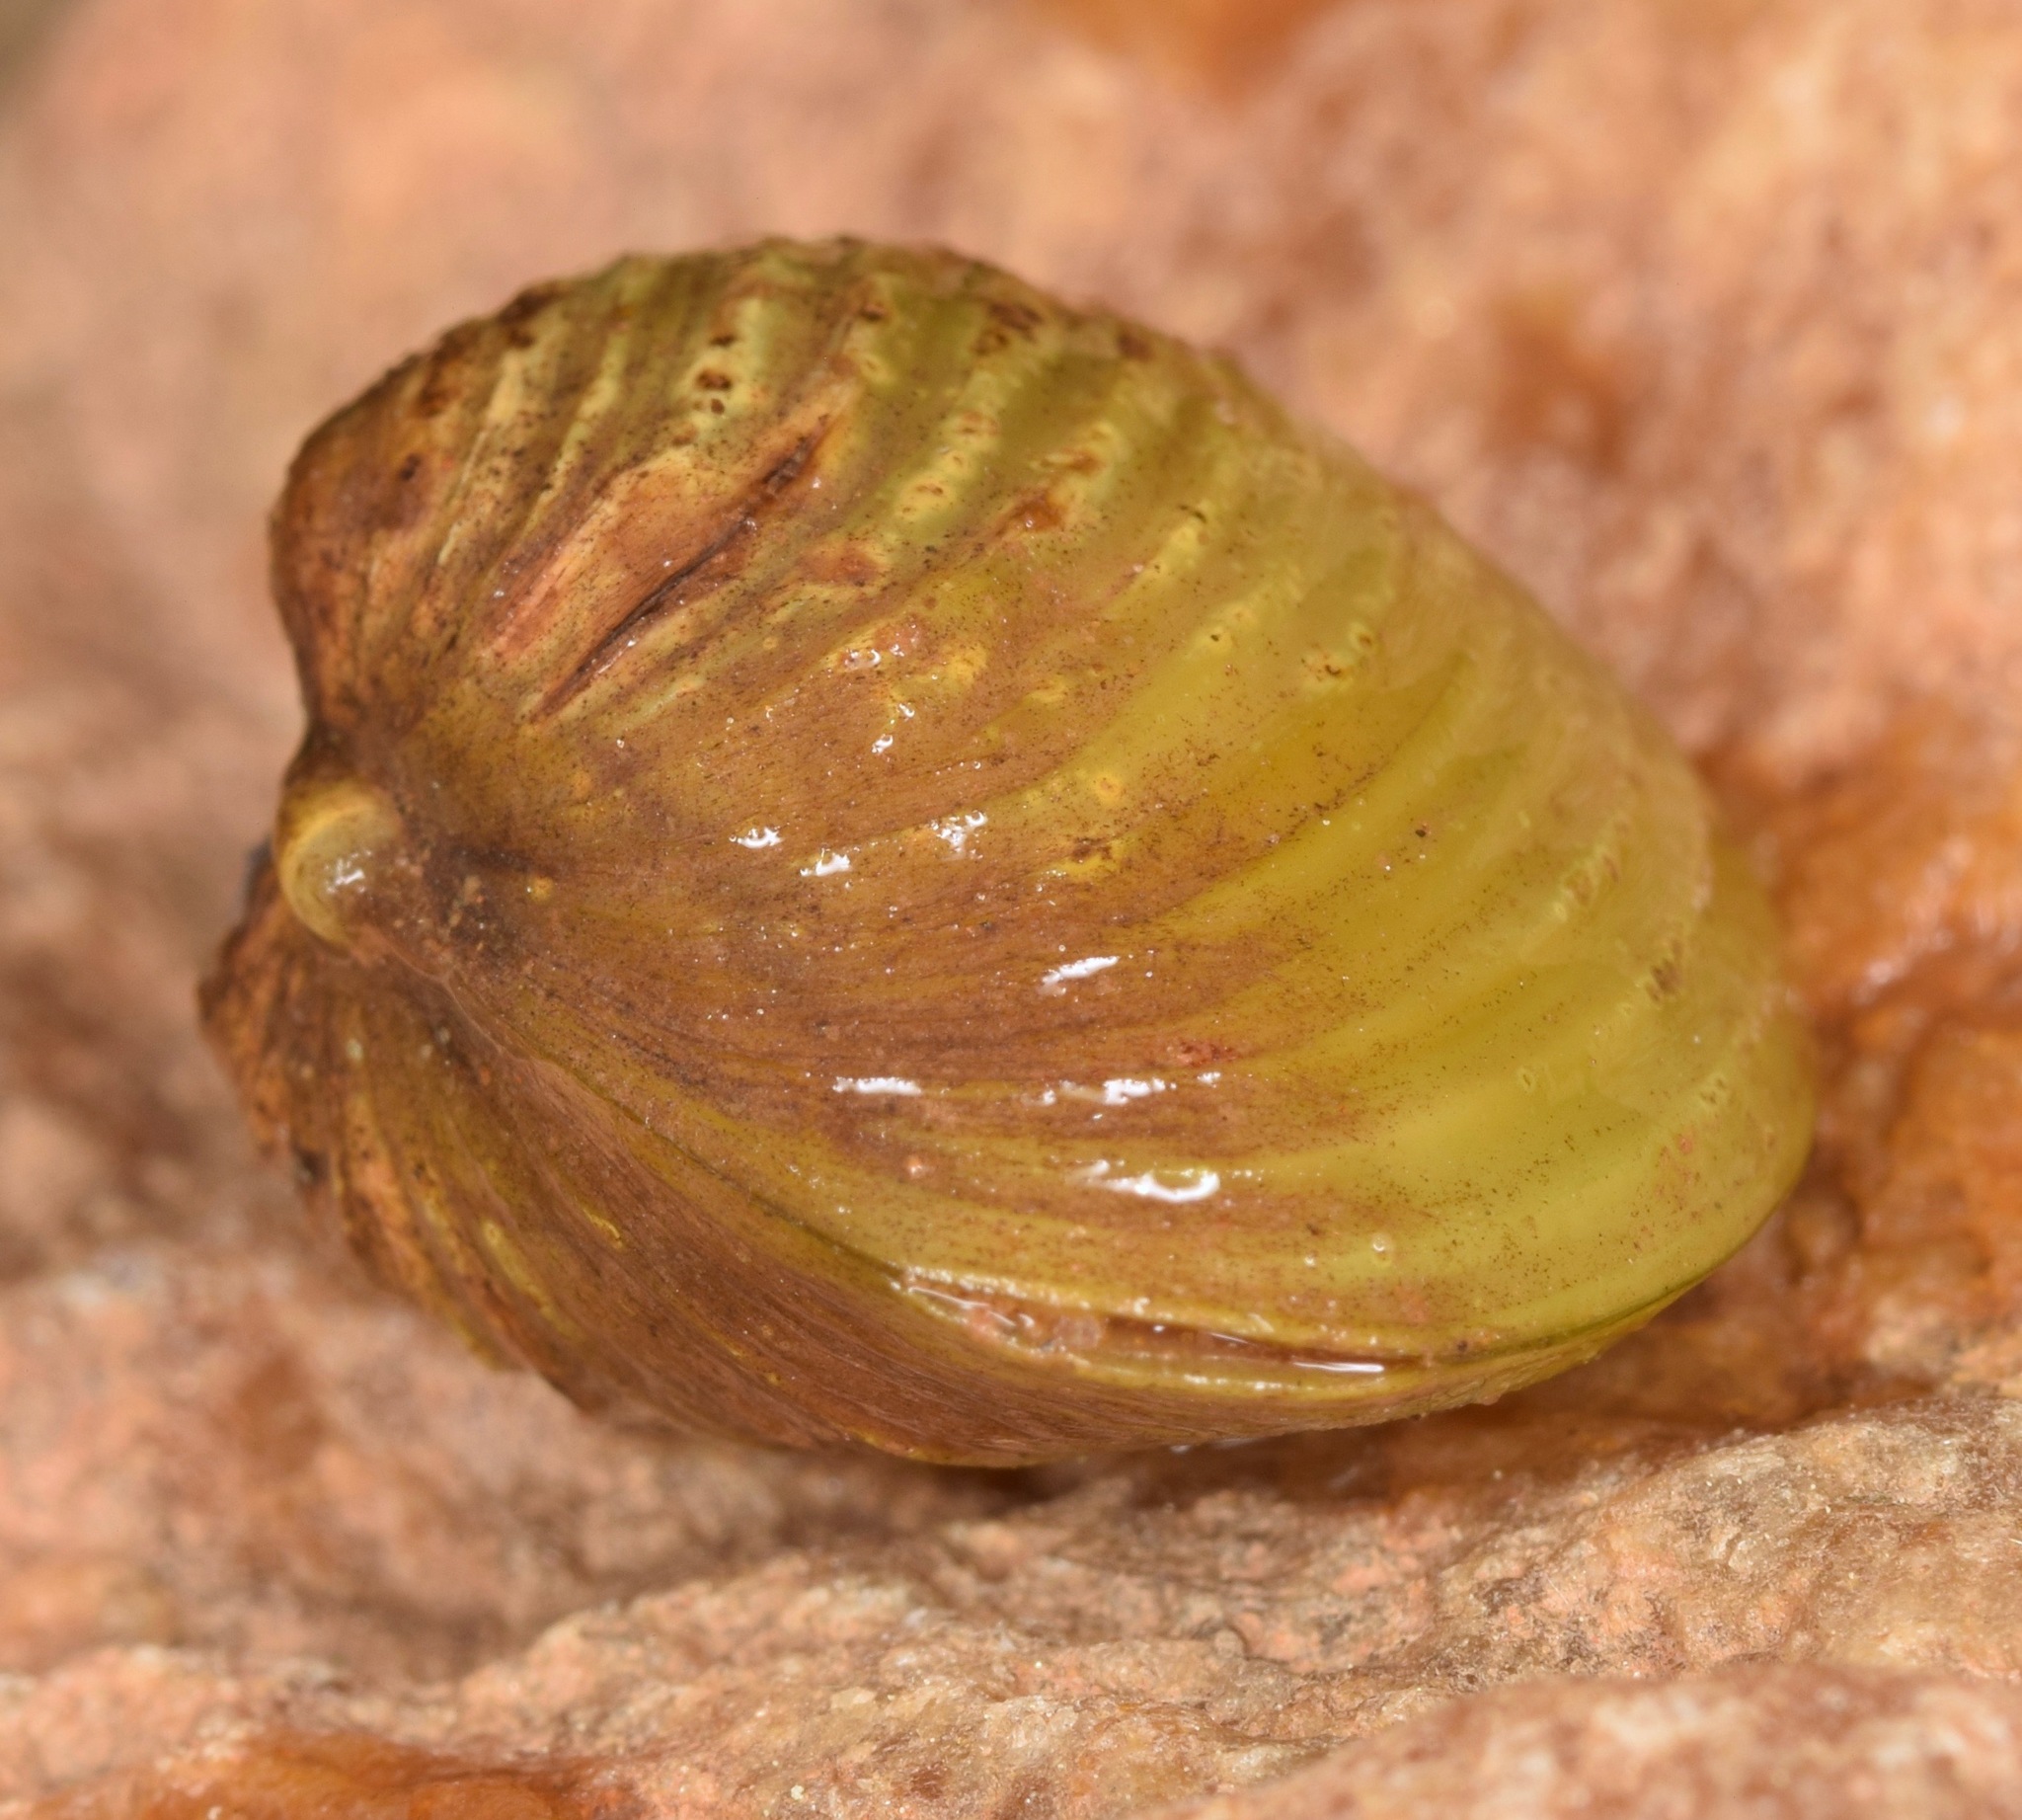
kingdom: Animalia
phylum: Mollusca
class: Bivalvia
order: Venerida
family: Cyrenidae
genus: Corbicula
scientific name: Corbicula fluminea
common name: Asian clam
